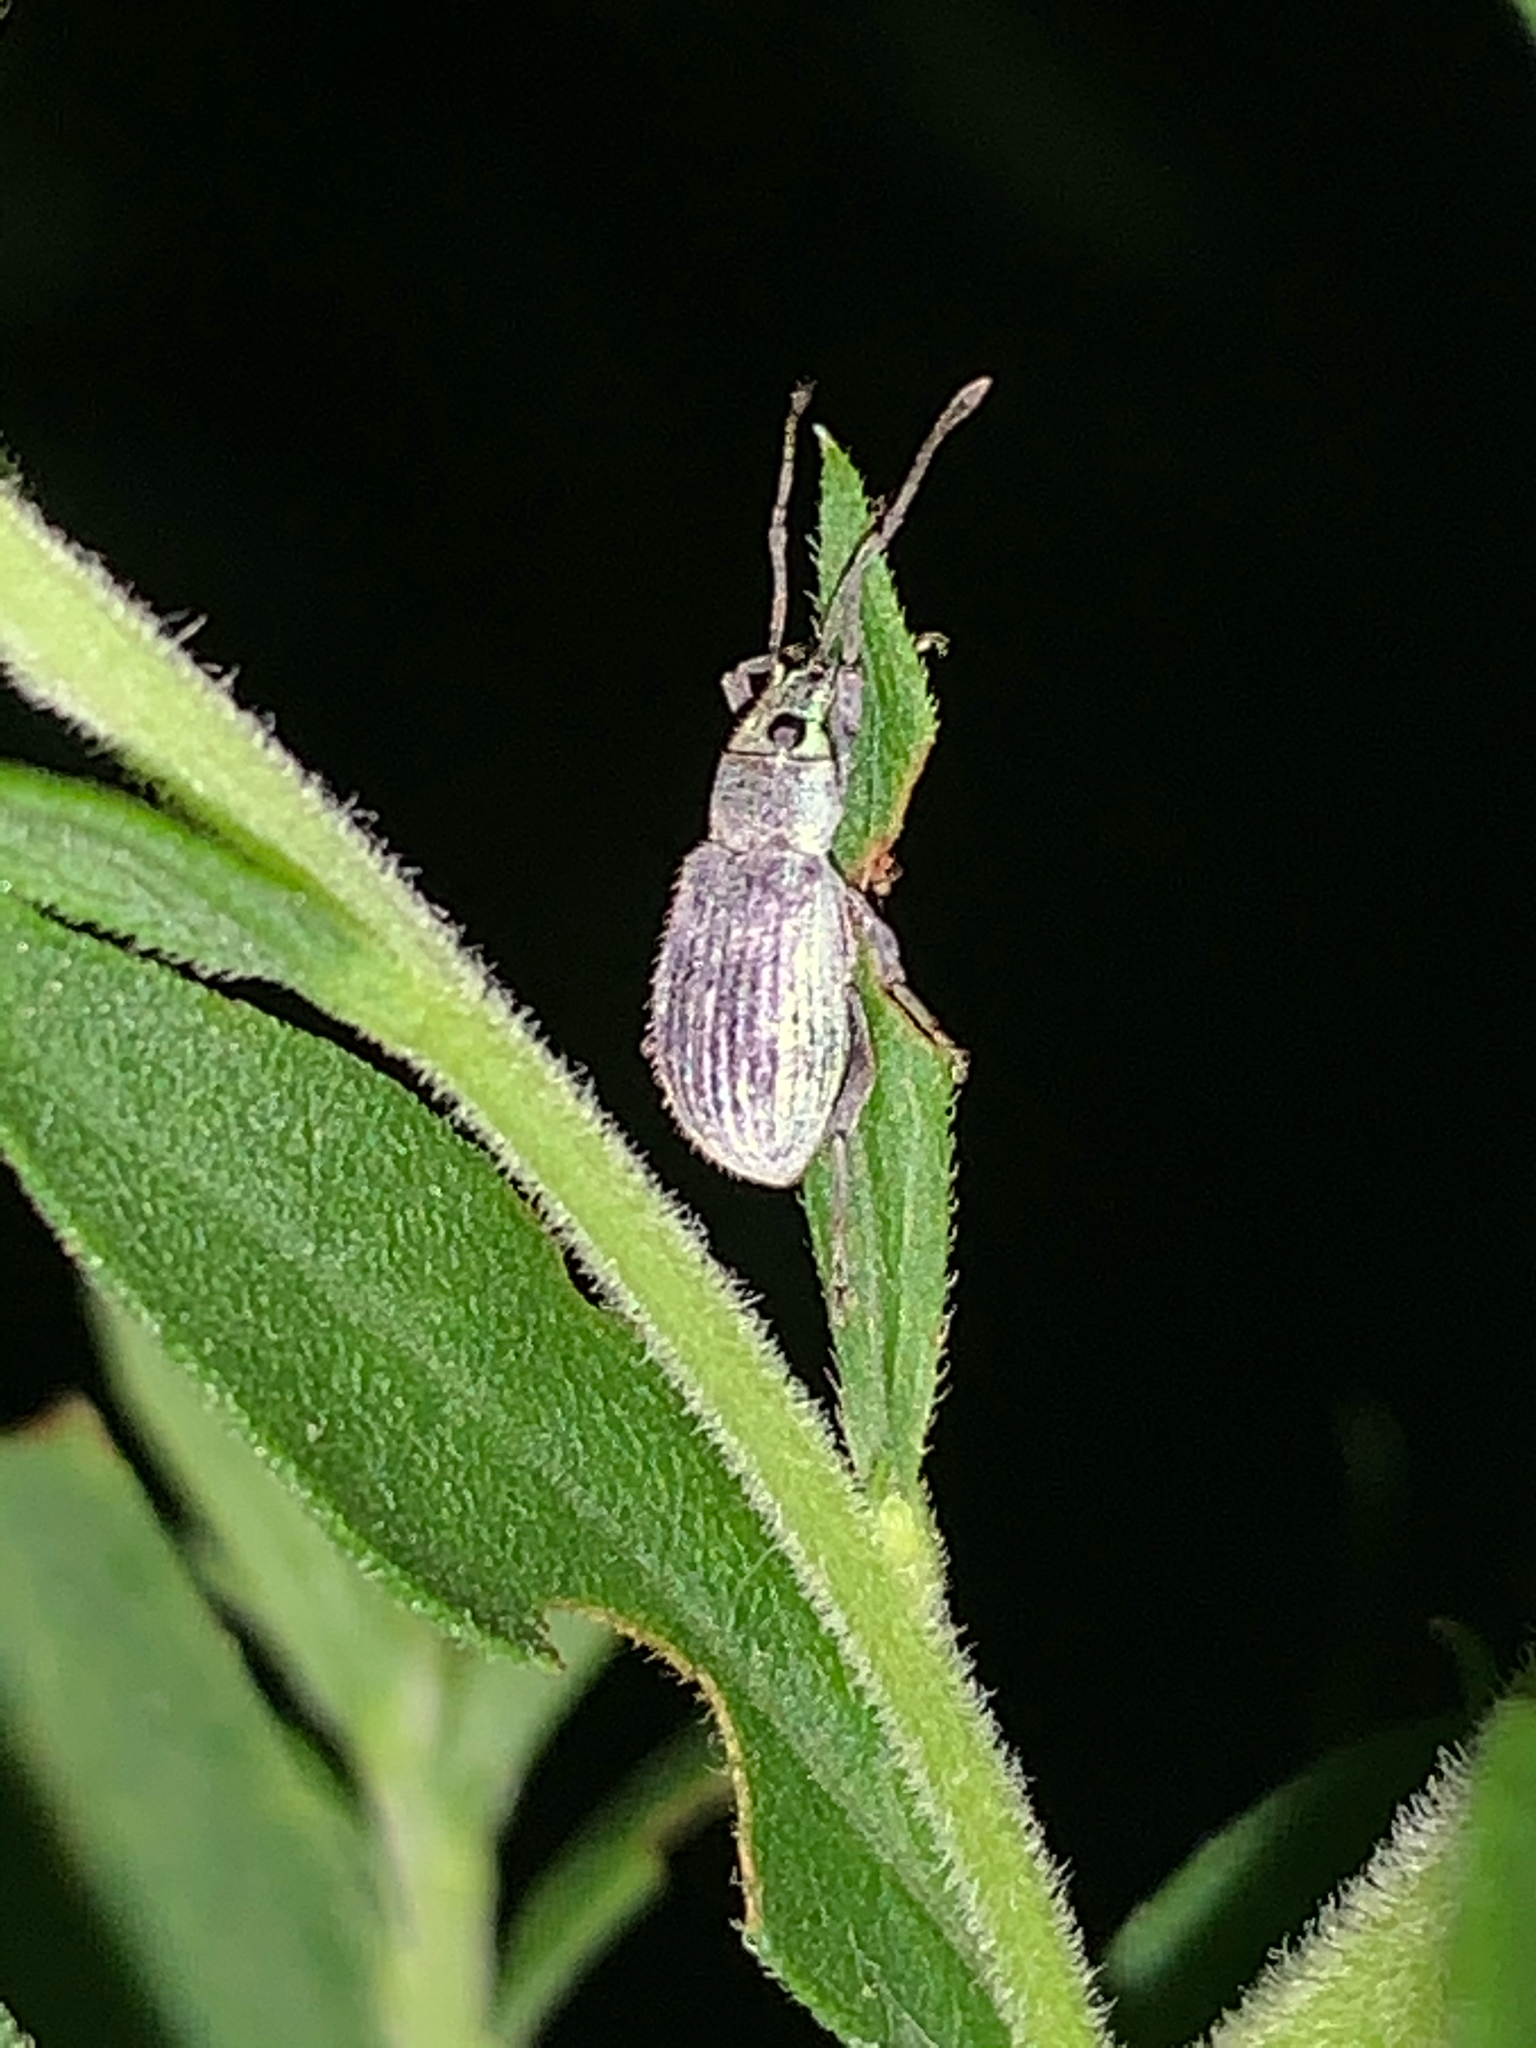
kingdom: Animalia
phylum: Arthropoda
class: Insecta
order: Coleoptera
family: Curculionidae
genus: Cyrtepistomus
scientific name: Cyrtepistomus castaneus
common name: Weevil
